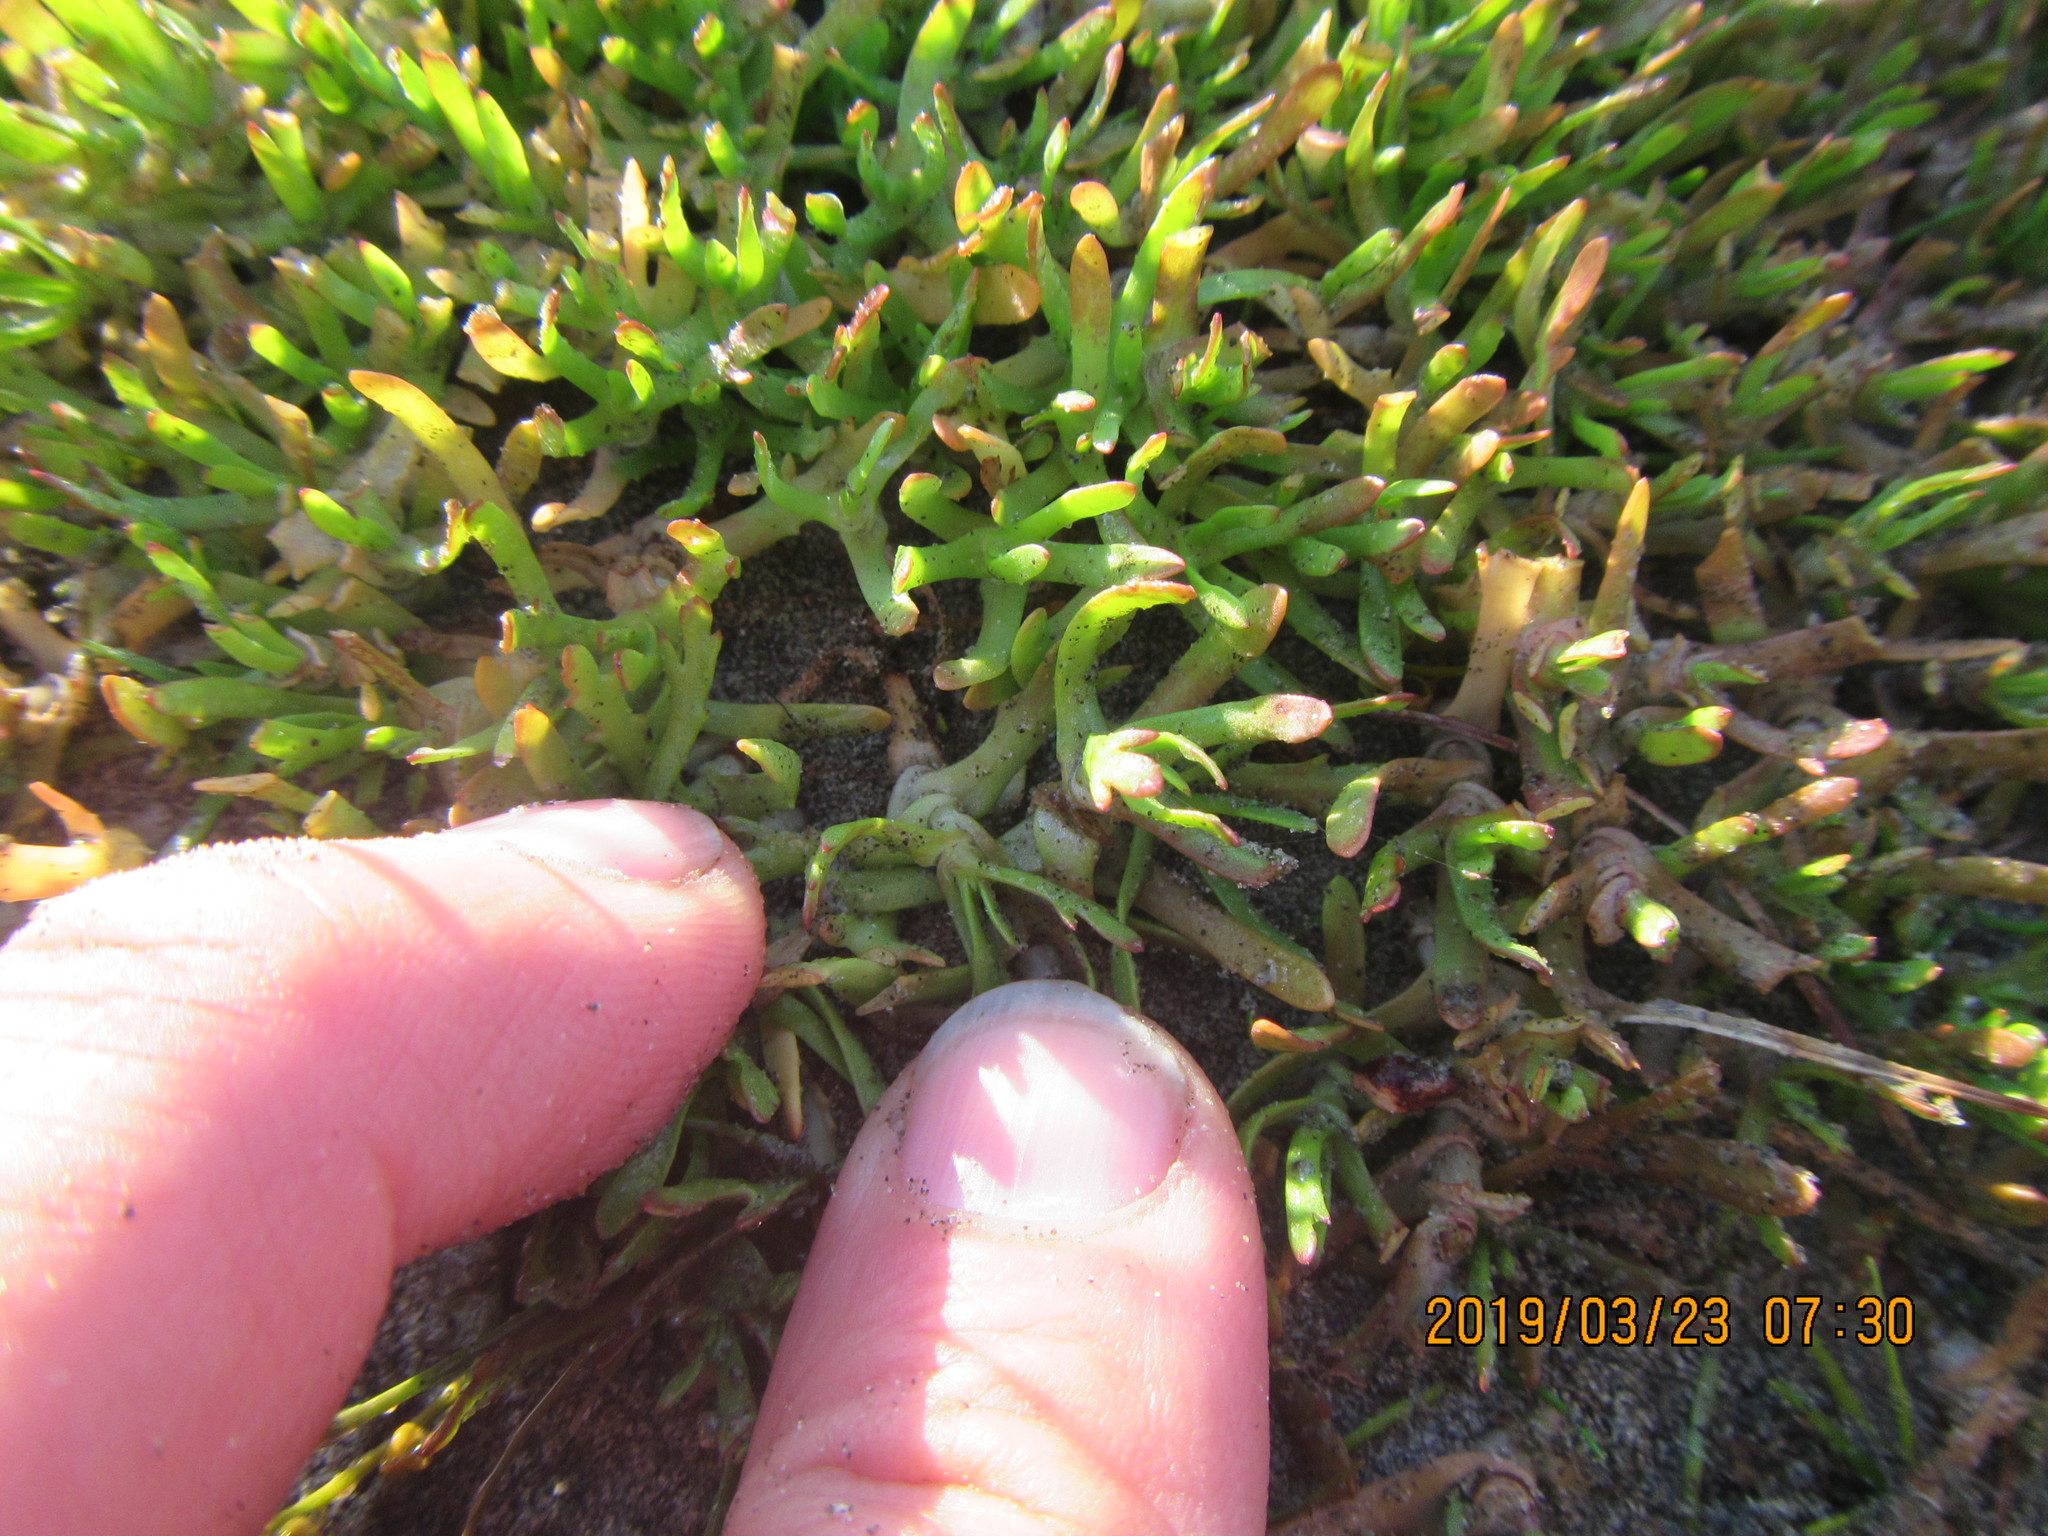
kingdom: Plantae
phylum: Tracheophyta
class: Magnoliopsida
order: Asterales
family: Asteraceae
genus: Cotula
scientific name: Cotula coronopifolia
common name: Buttonweed
